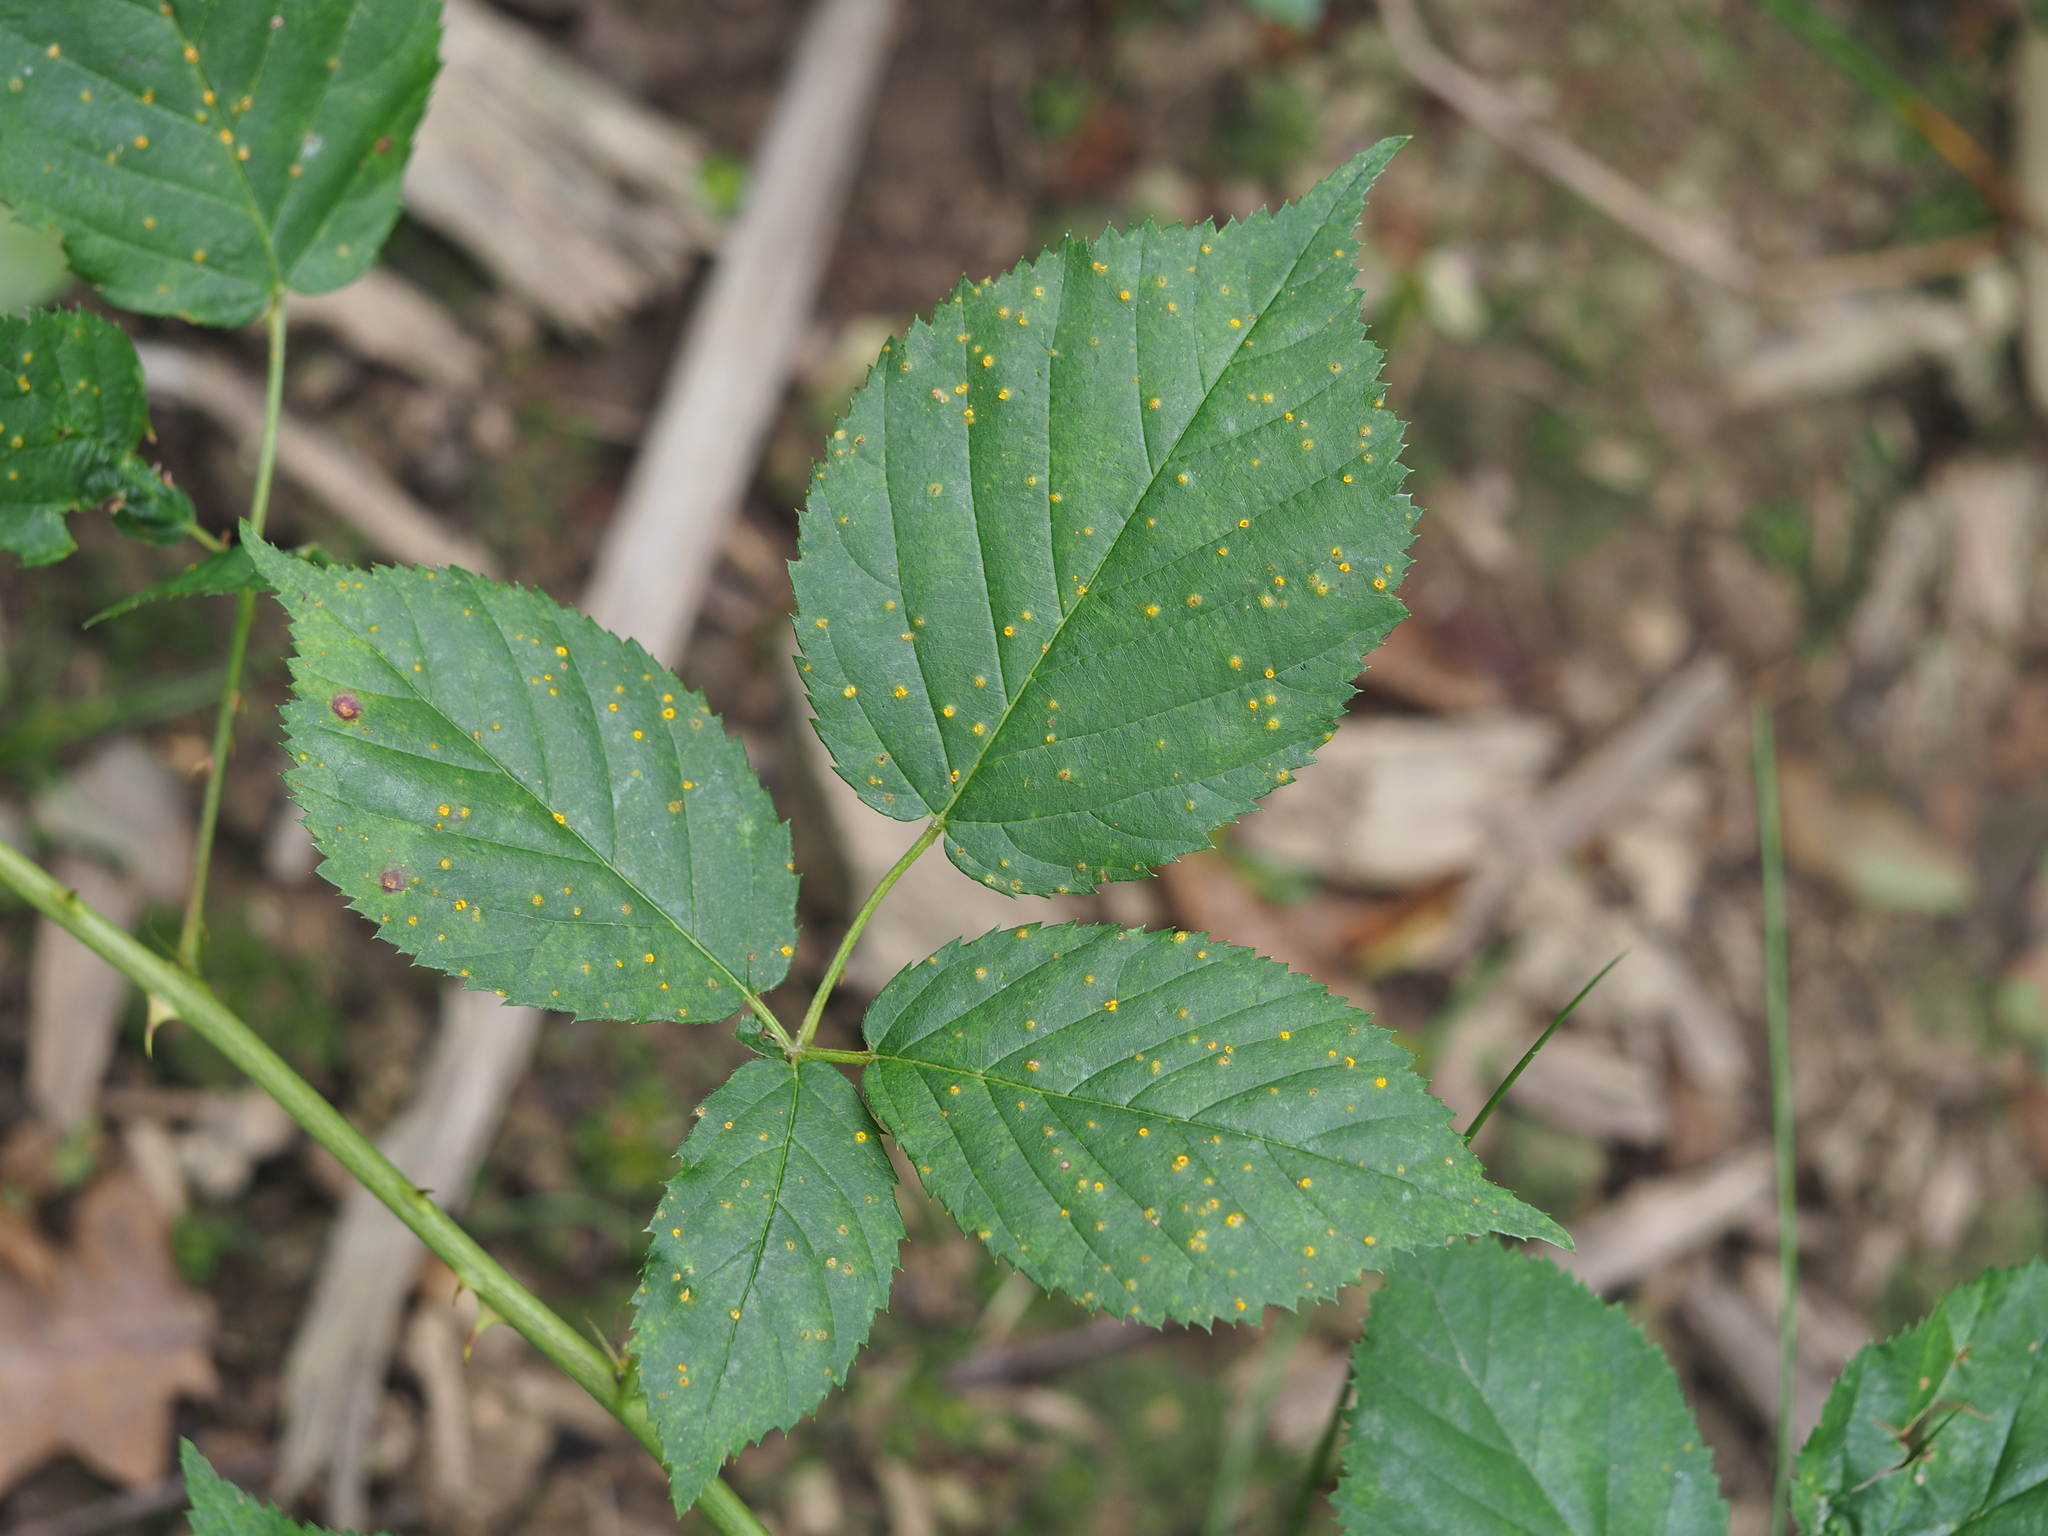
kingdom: Fungi
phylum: Basidiomycota
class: Pucciniomycetes
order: Pucciniales
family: Phragmidiaceae
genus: Kuehneola
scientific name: Kuehneola uredinis
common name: Bramble stem rust
